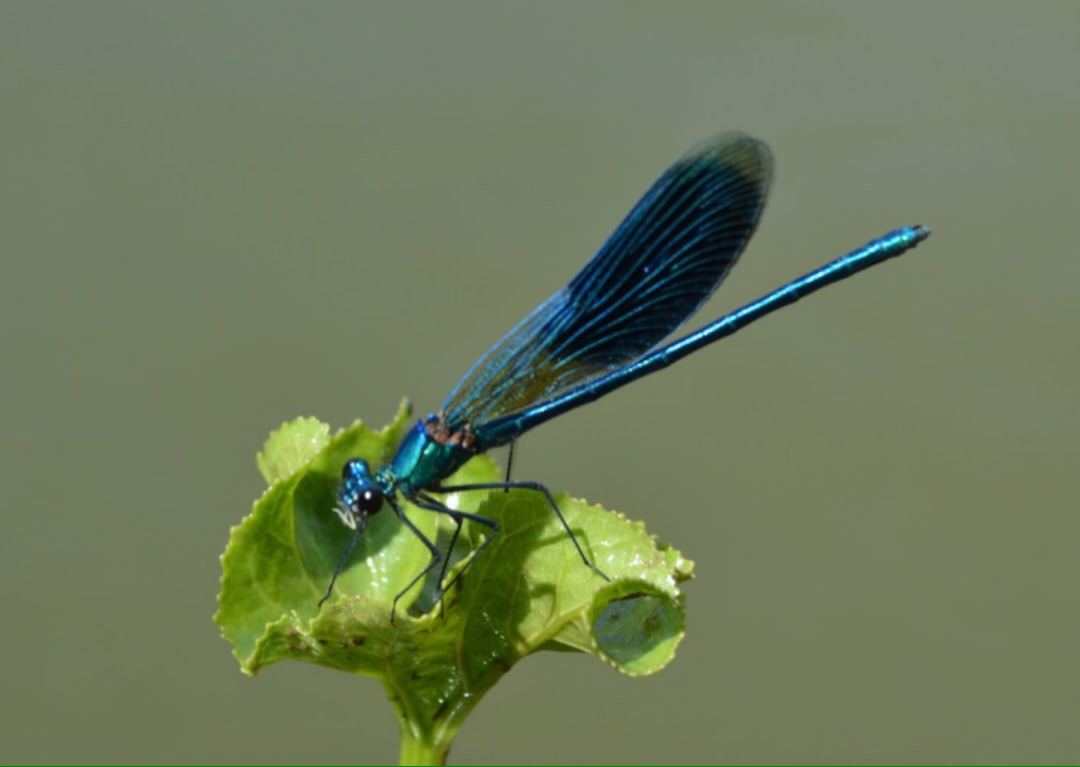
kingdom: Animalia
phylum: Arthropoda
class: Insecta
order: Odonata
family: Calopterygidae
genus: Calopteryx
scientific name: Calopteryx splendens
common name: Banded demoiselle
